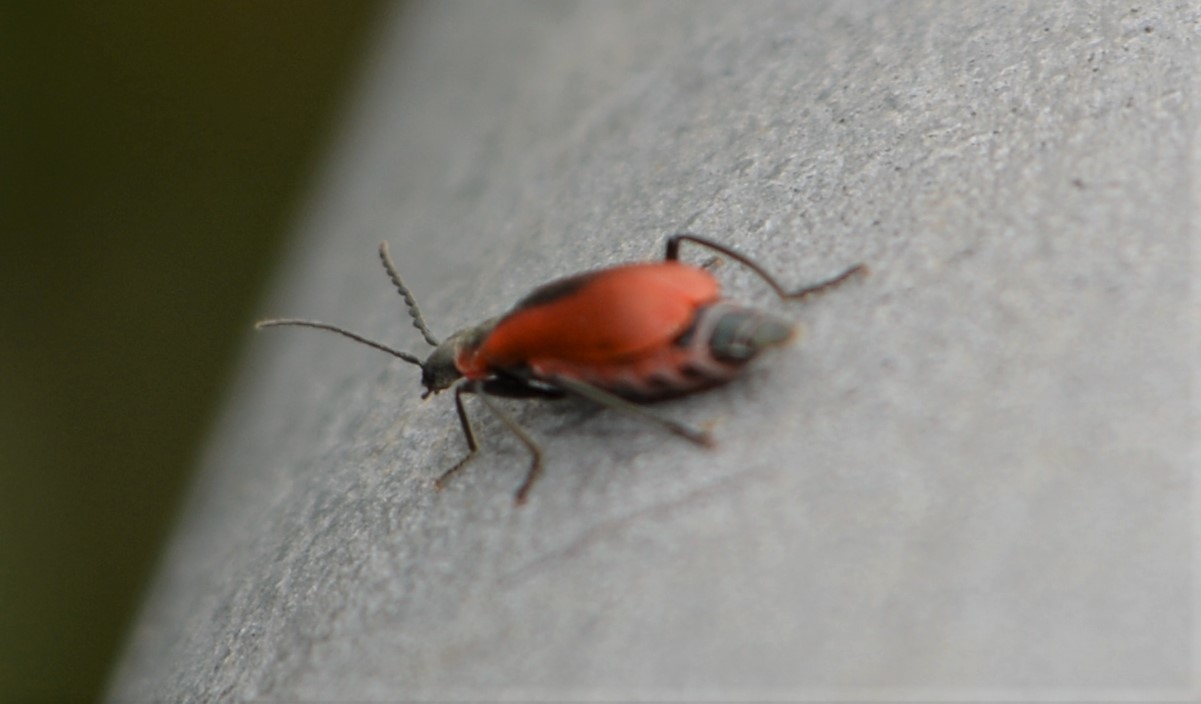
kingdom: Animalia
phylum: Arthropoda
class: Insecta
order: Coleoptera
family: Melyridae
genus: Anthocomus
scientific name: Anthocomus rufus
